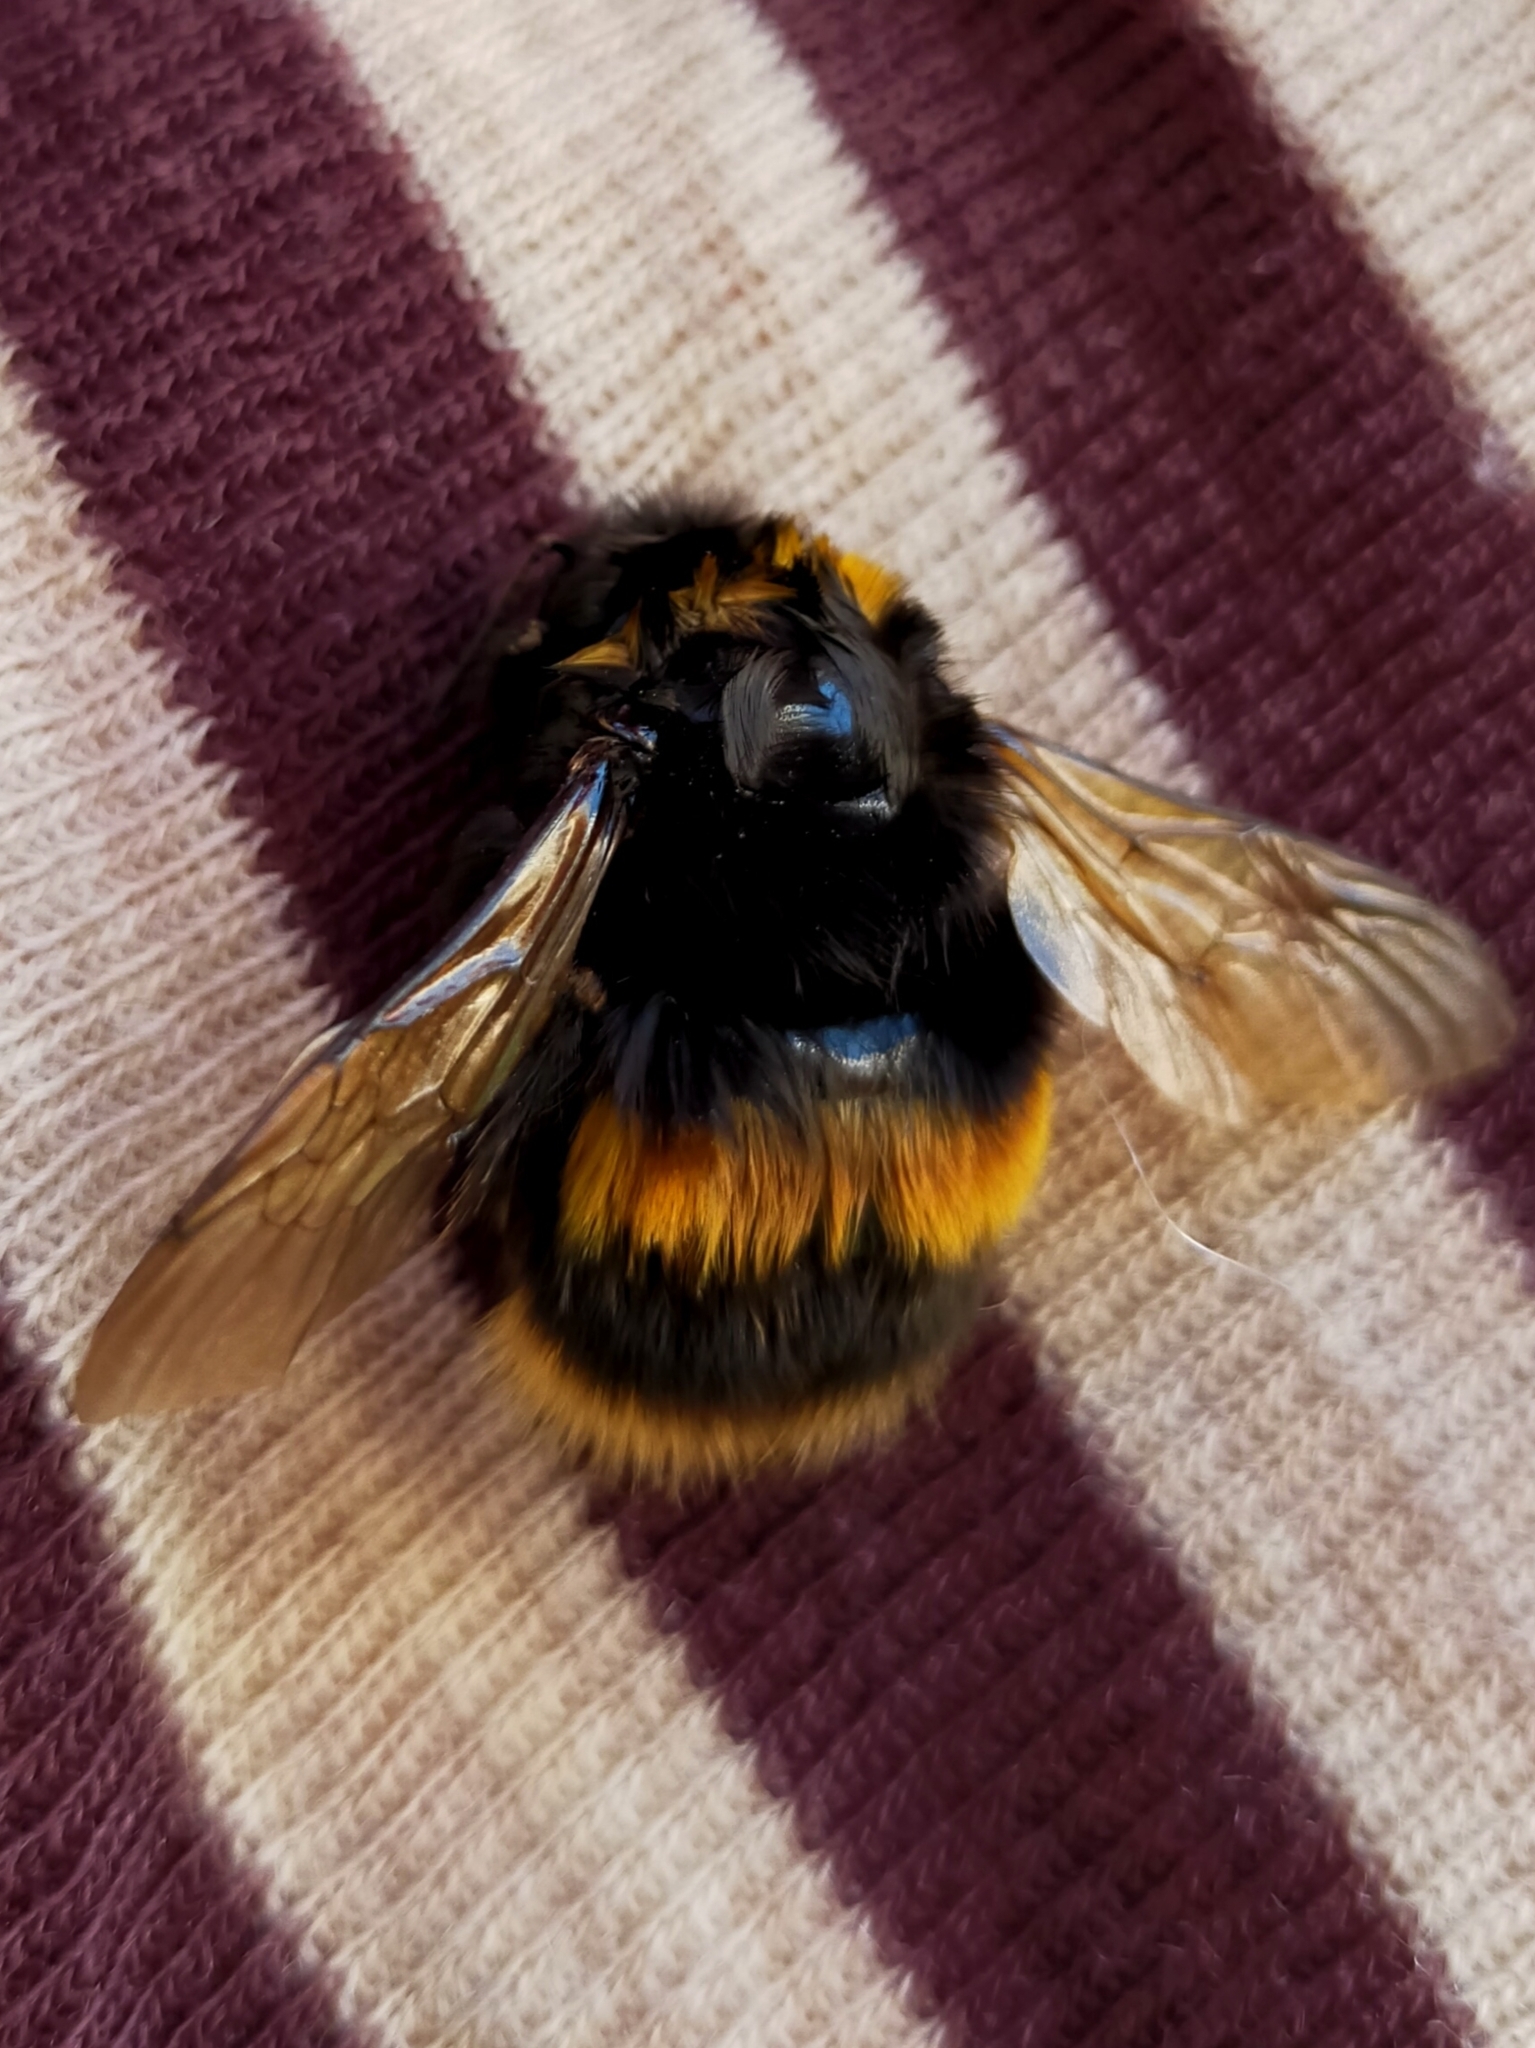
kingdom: Animalia
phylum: Arthropoda
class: Insecta
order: Hymenoptera
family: Apidae
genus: Bombus
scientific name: Bombus terrestris
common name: Buff-tailed bumblebee
